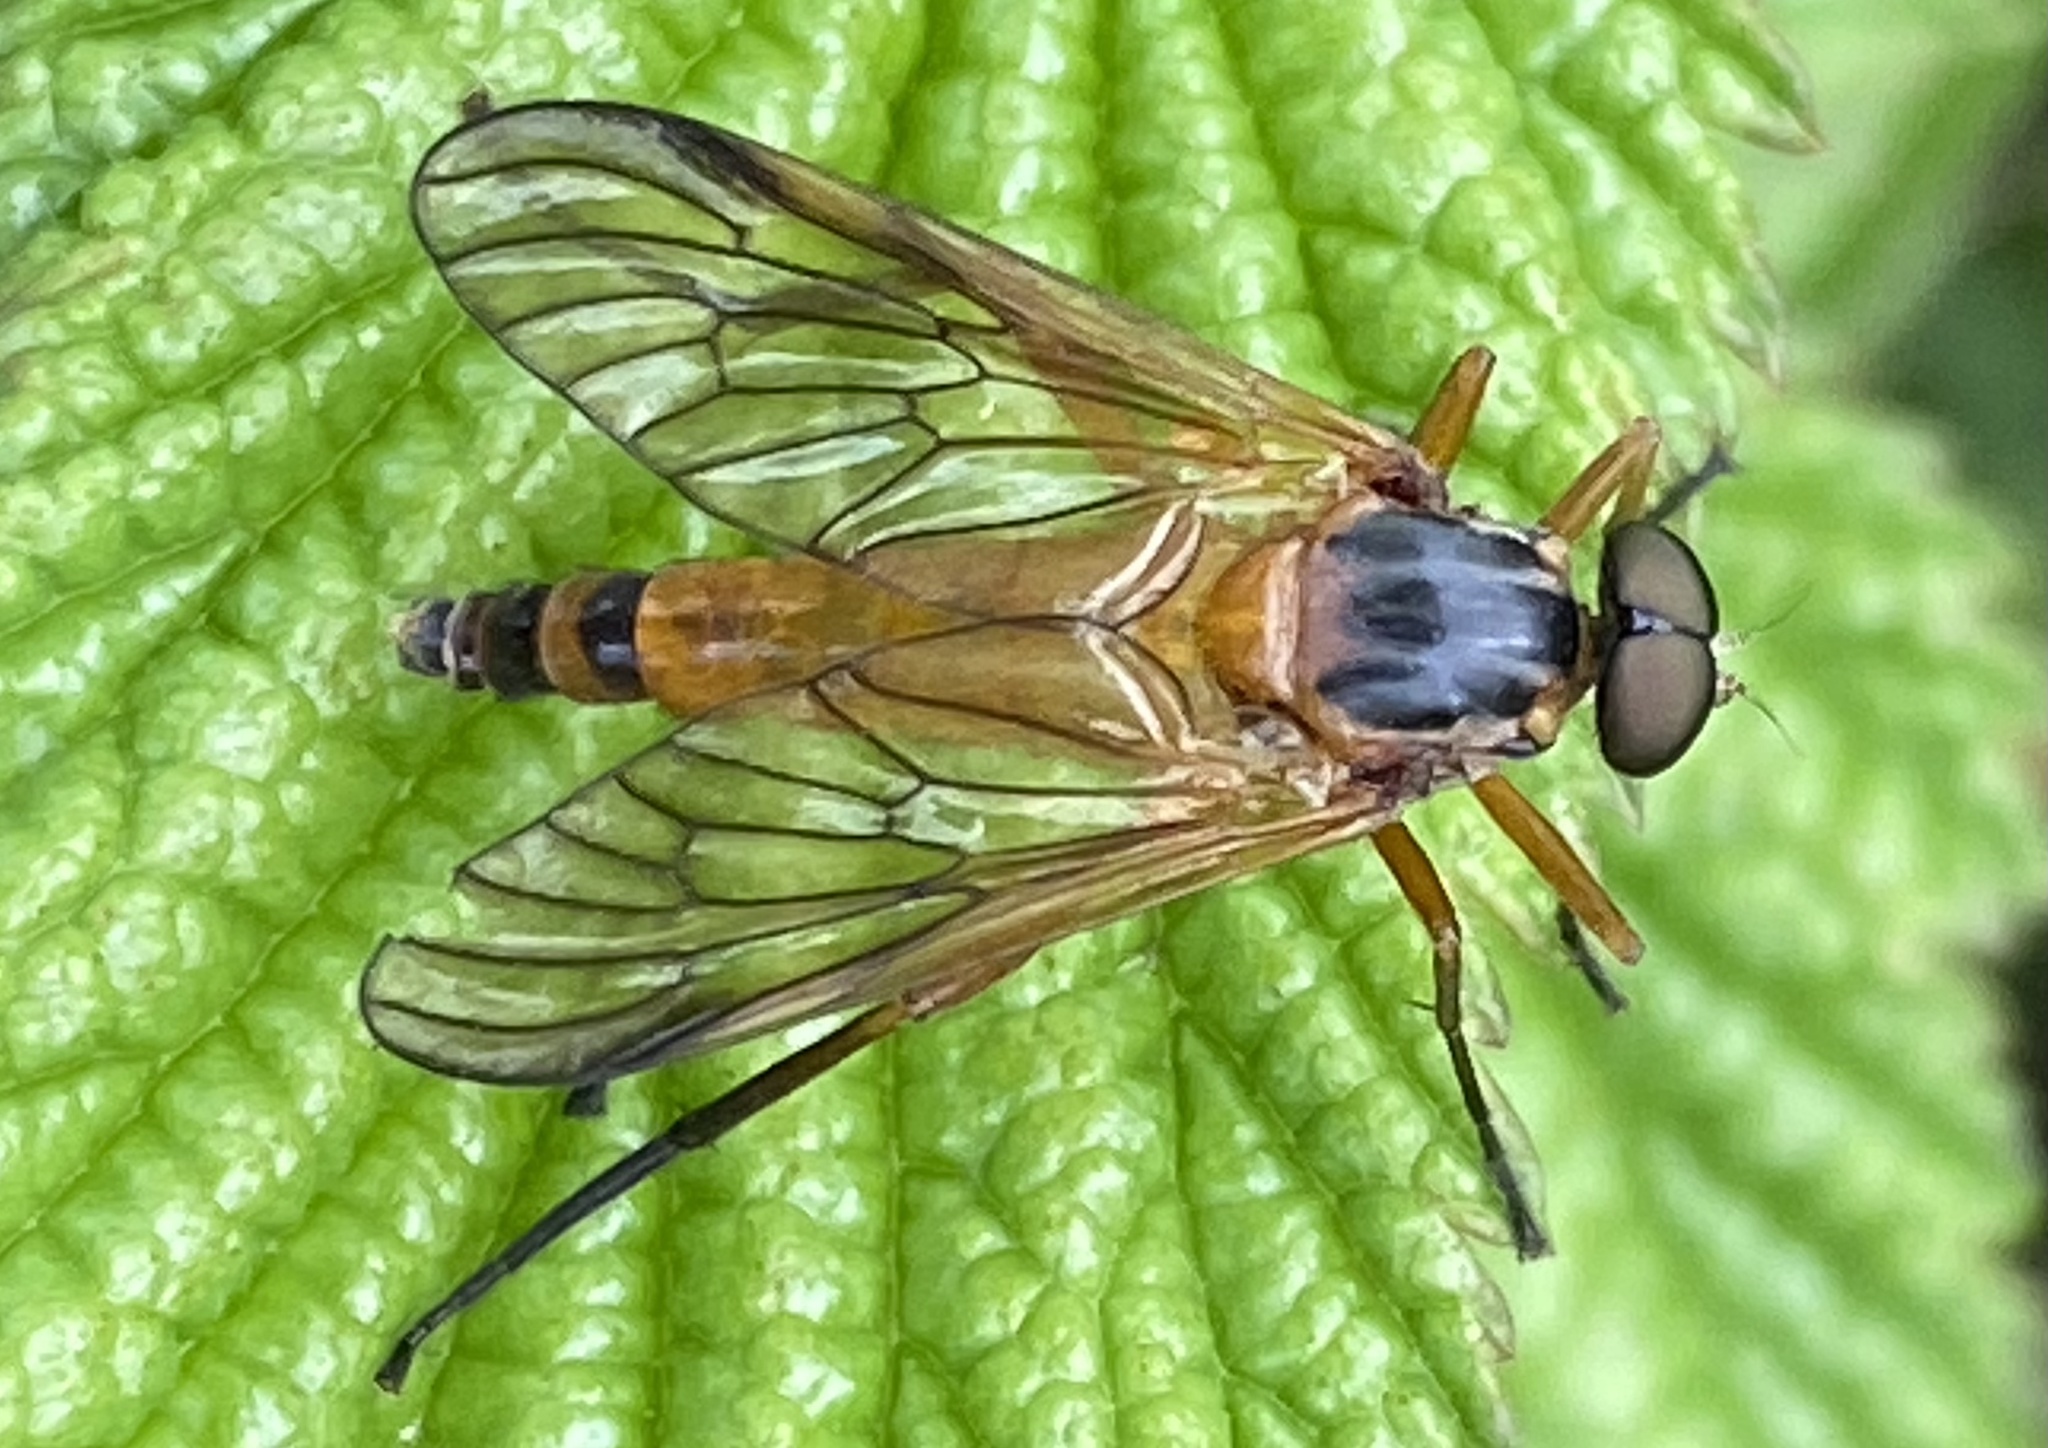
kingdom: Animalia
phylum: Arthropoda
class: Insecta
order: Diptera
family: Rhagionidae
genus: Rhagio
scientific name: Rhagio immaculatus
